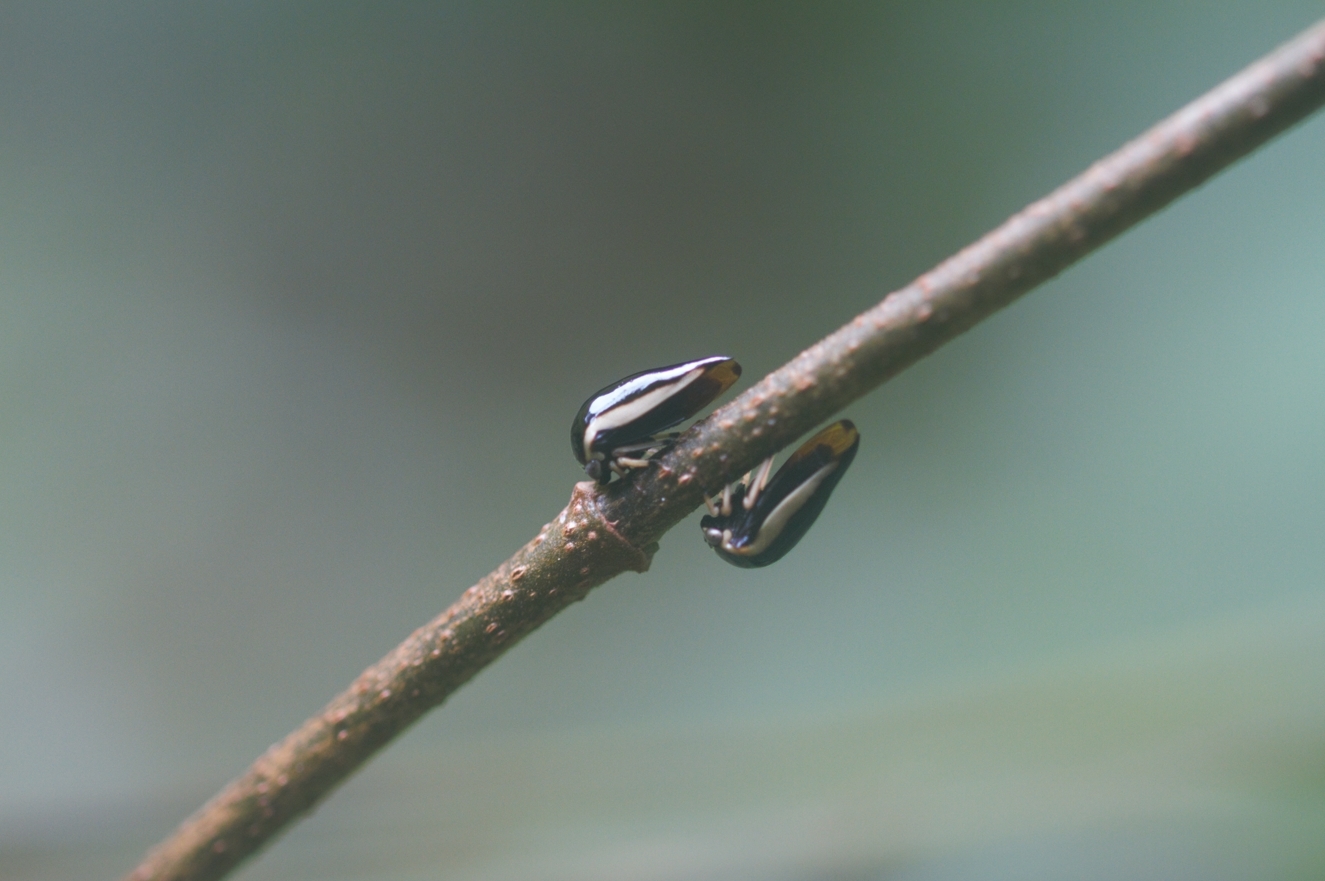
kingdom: Animalia
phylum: Arthropoda
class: Insecta
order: Hemiptera
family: Membracidae
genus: Darnis
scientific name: Darnis lateralis
